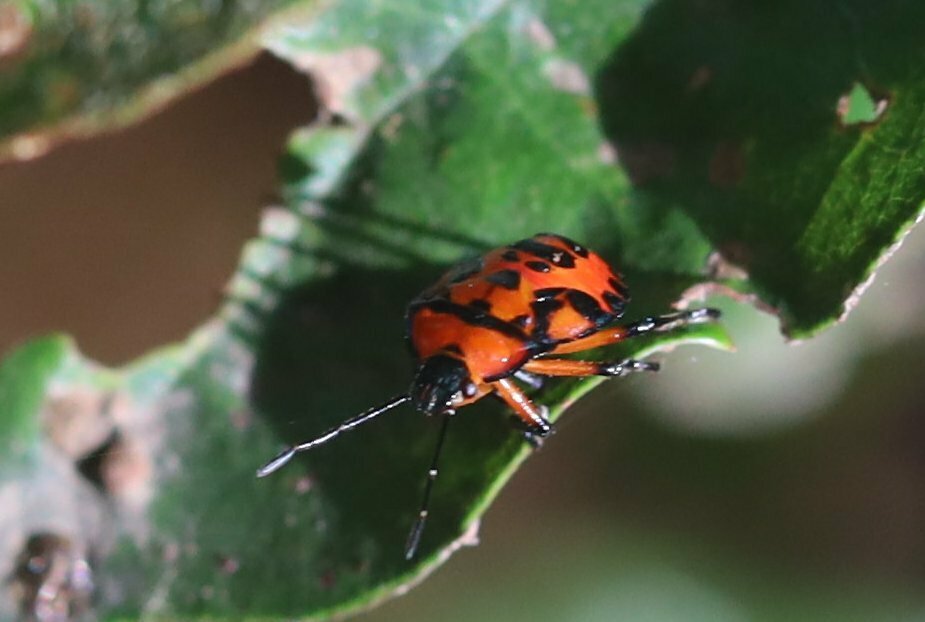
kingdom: Animalia
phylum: Arthropoda
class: Insecta
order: Hemiptera
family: Pentatomidae
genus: Brontocoris
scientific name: Brontocoris
